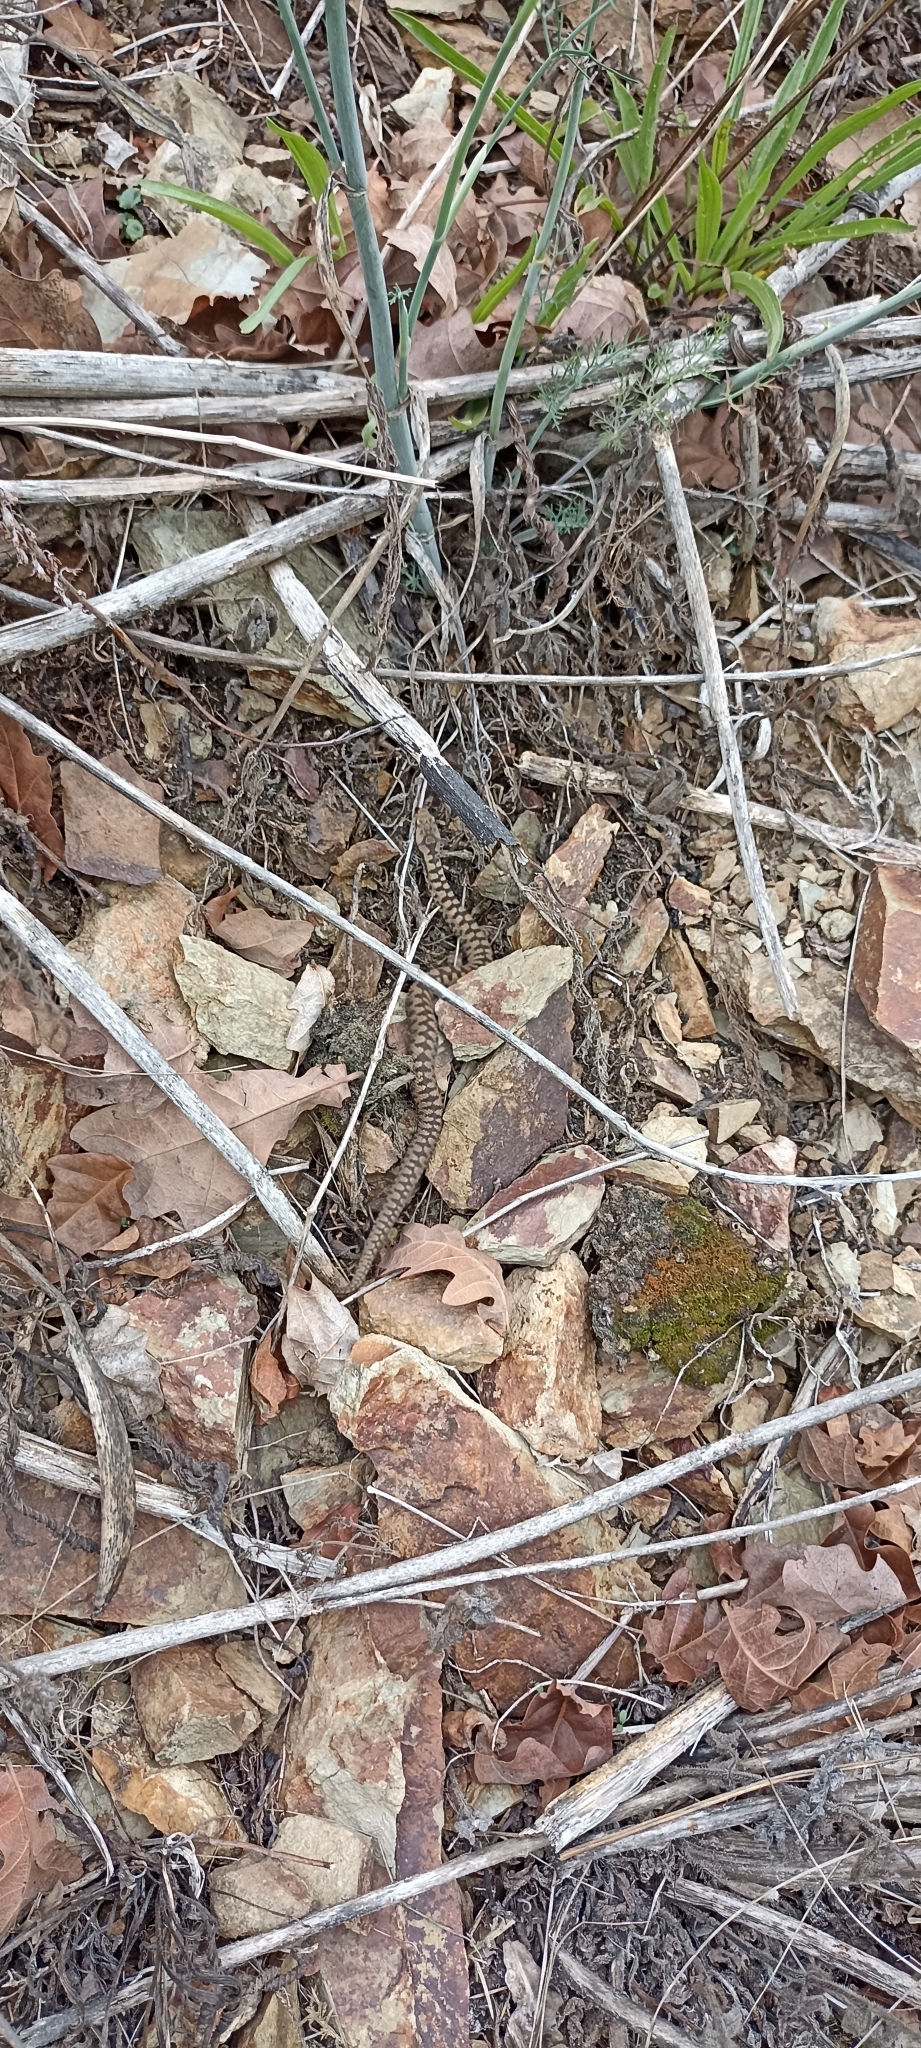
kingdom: Animalia
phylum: Chordata
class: Squamata
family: Viperidae
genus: Vipera
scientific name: Vipera aspis
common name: Asp viper
